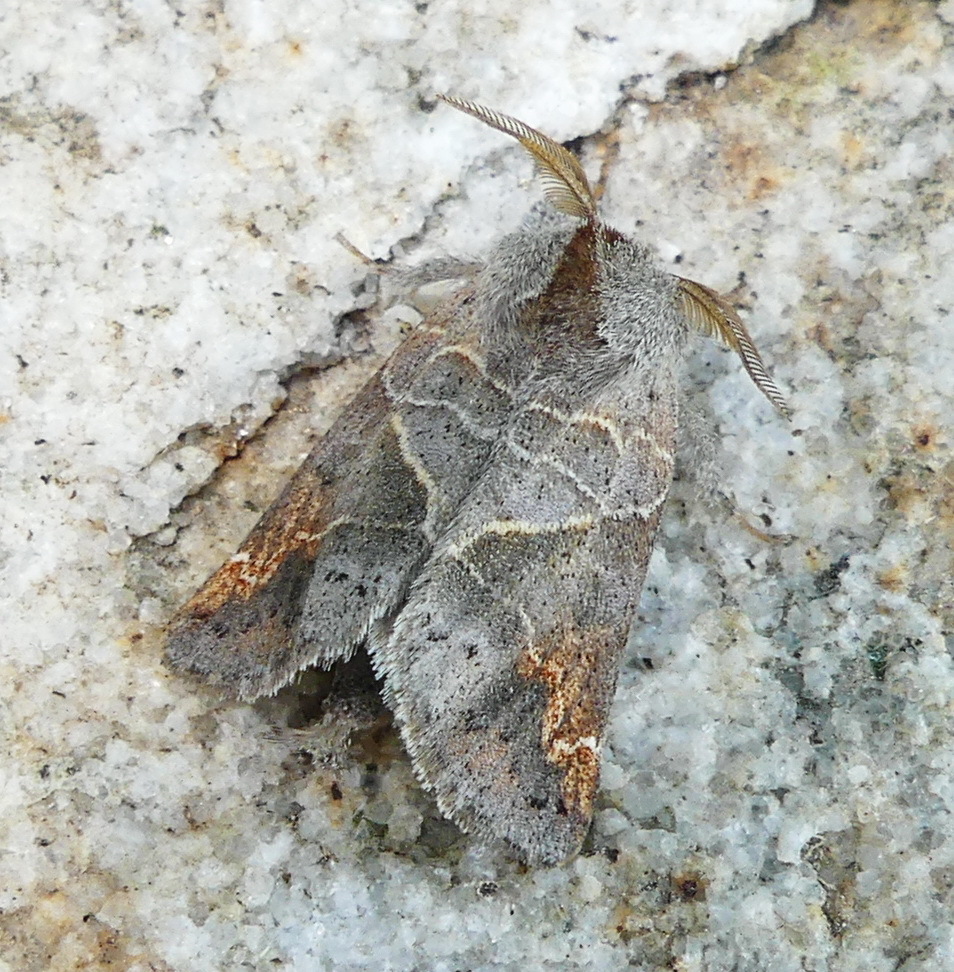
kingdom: Animalia
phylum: Arthropoda
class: Insecta
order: Lepidoptera
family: Notodontidae
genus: Clostera
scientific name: Clostera apicalis
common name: Apical prominent
